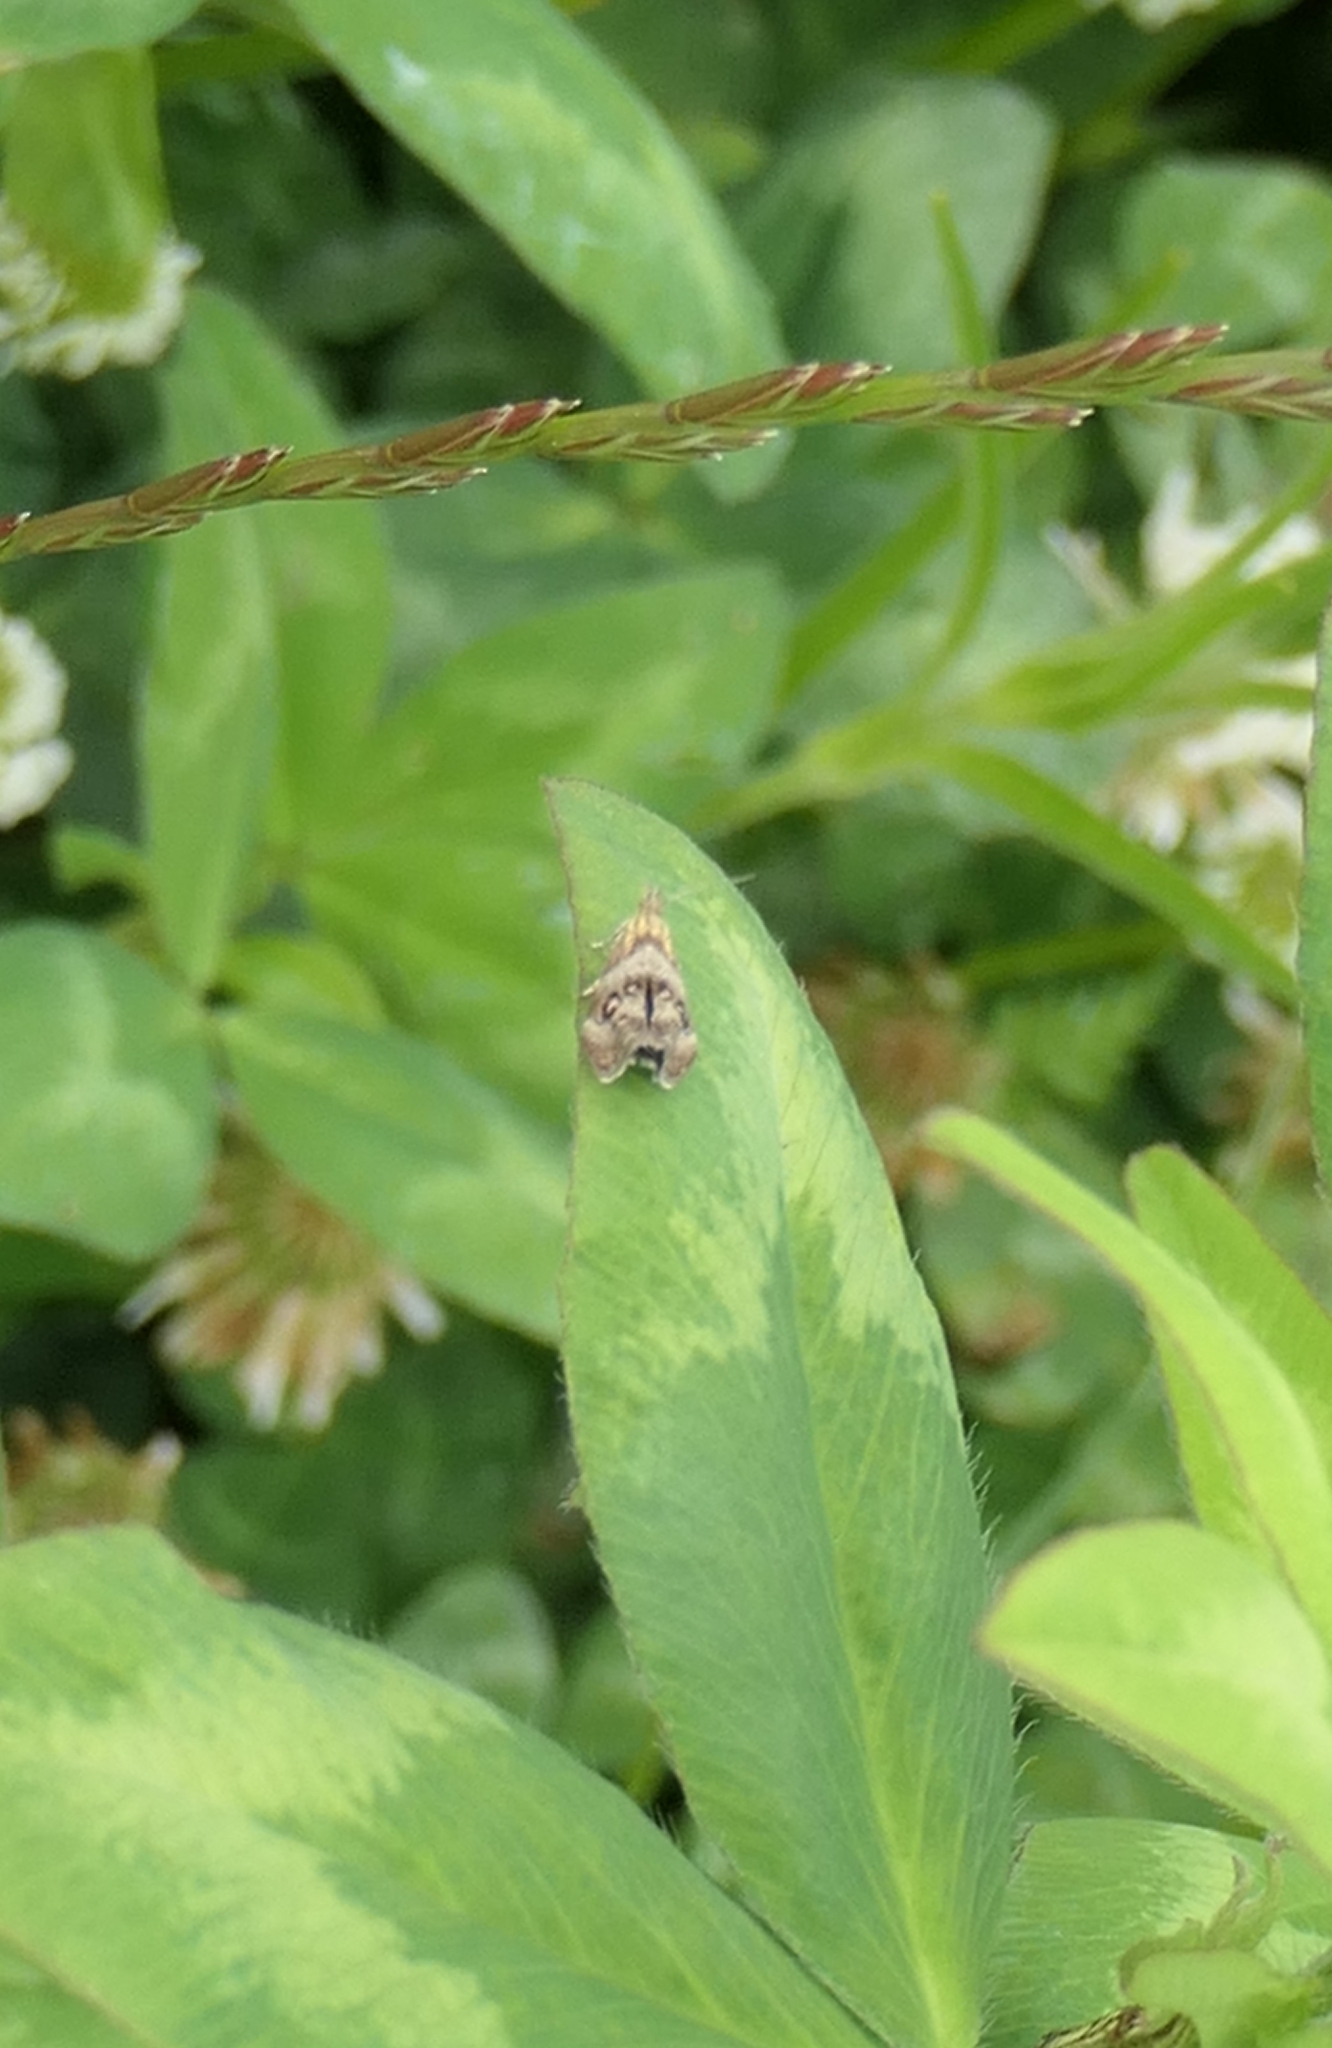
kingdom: Animalia
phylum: Arthropoda
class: Insecta
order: Lepidoptera
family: Choreutidae
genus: Tebenna
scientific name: Tebenna micalis
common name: Vagrant twitcher
